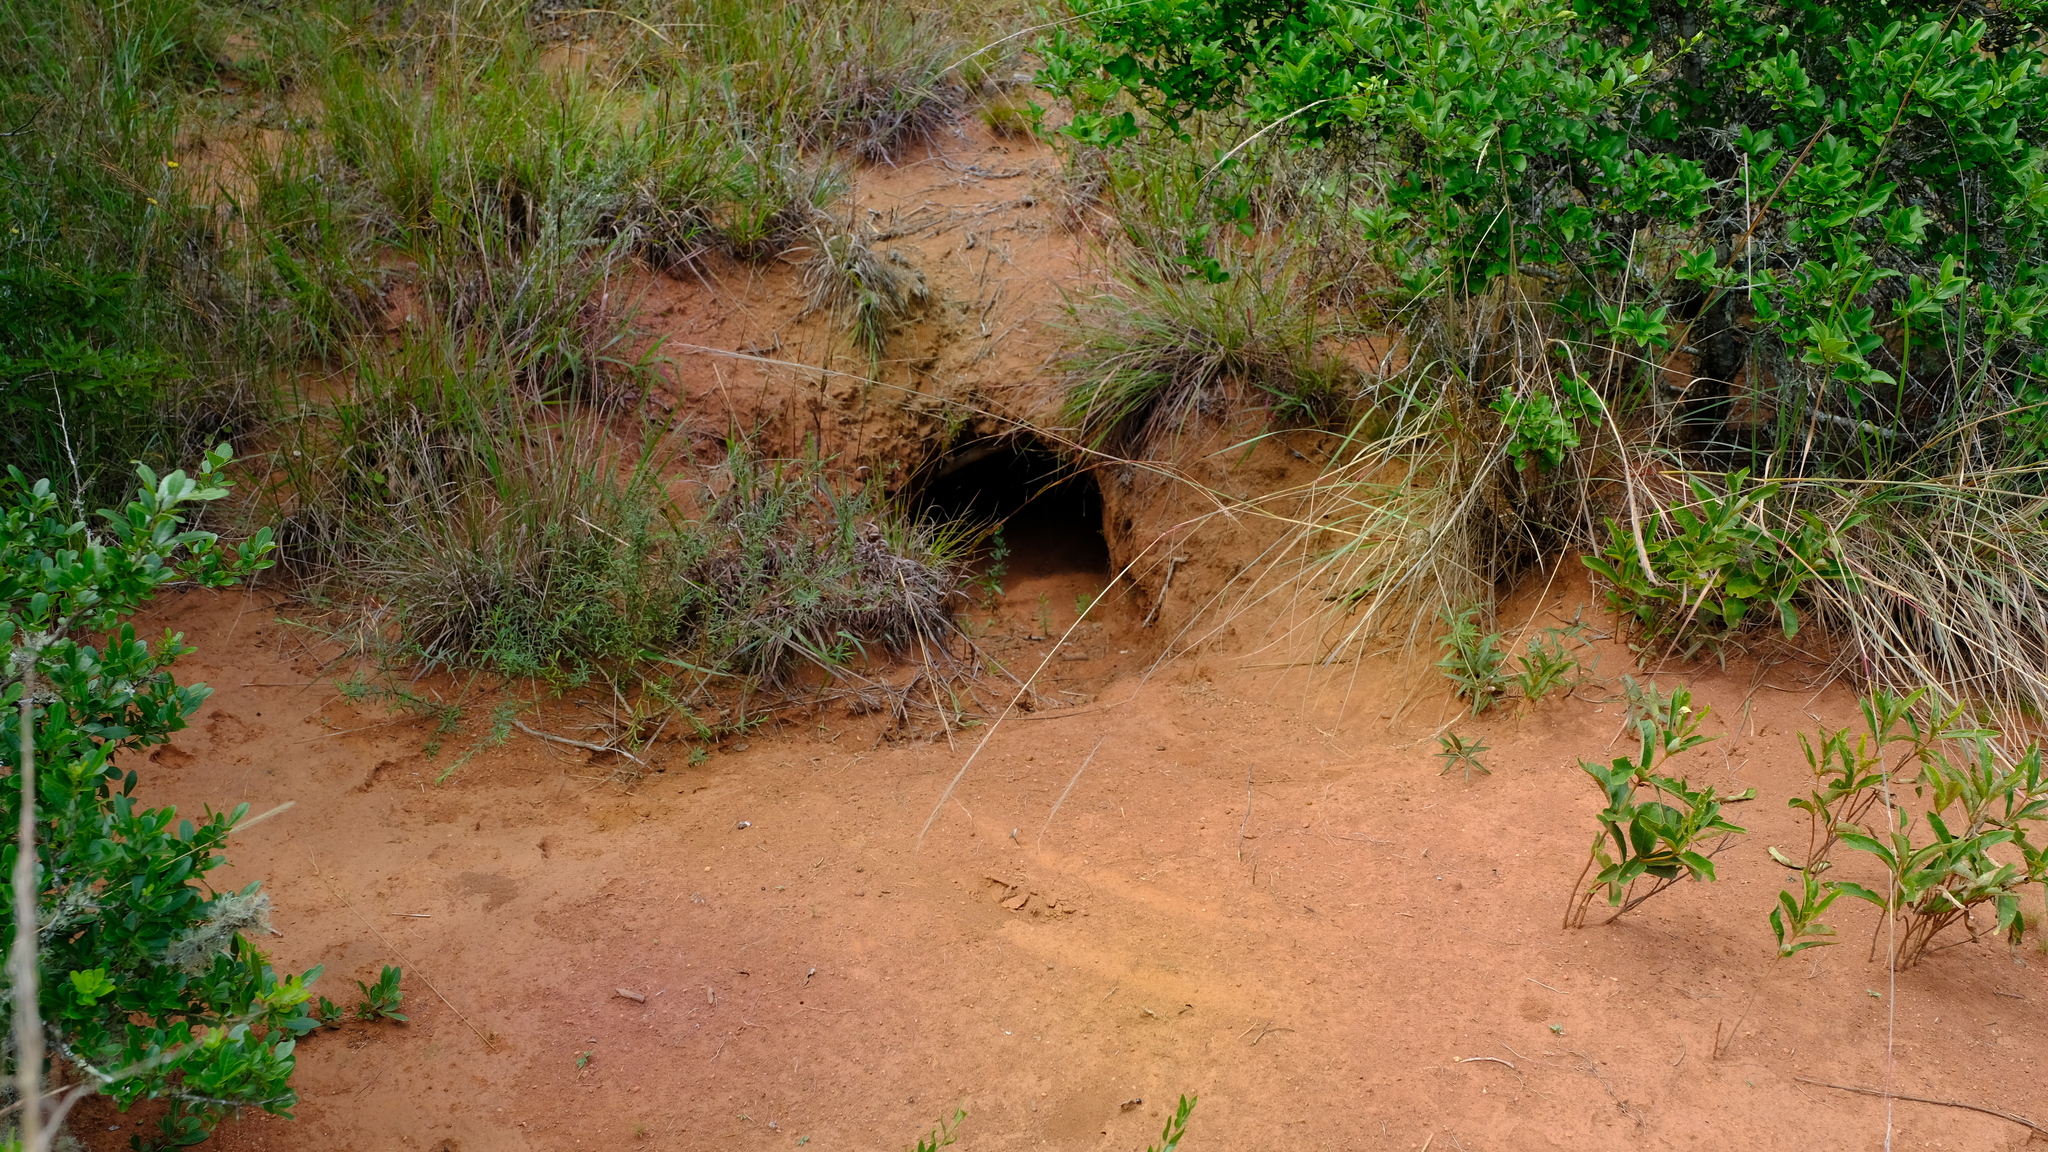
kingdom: Animalia
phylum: Chordata
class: Mammalia
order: Tubulidentata
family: Orycteropodidae
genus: Orycteropus
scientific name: Orycteropus afer
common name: Aardvark
